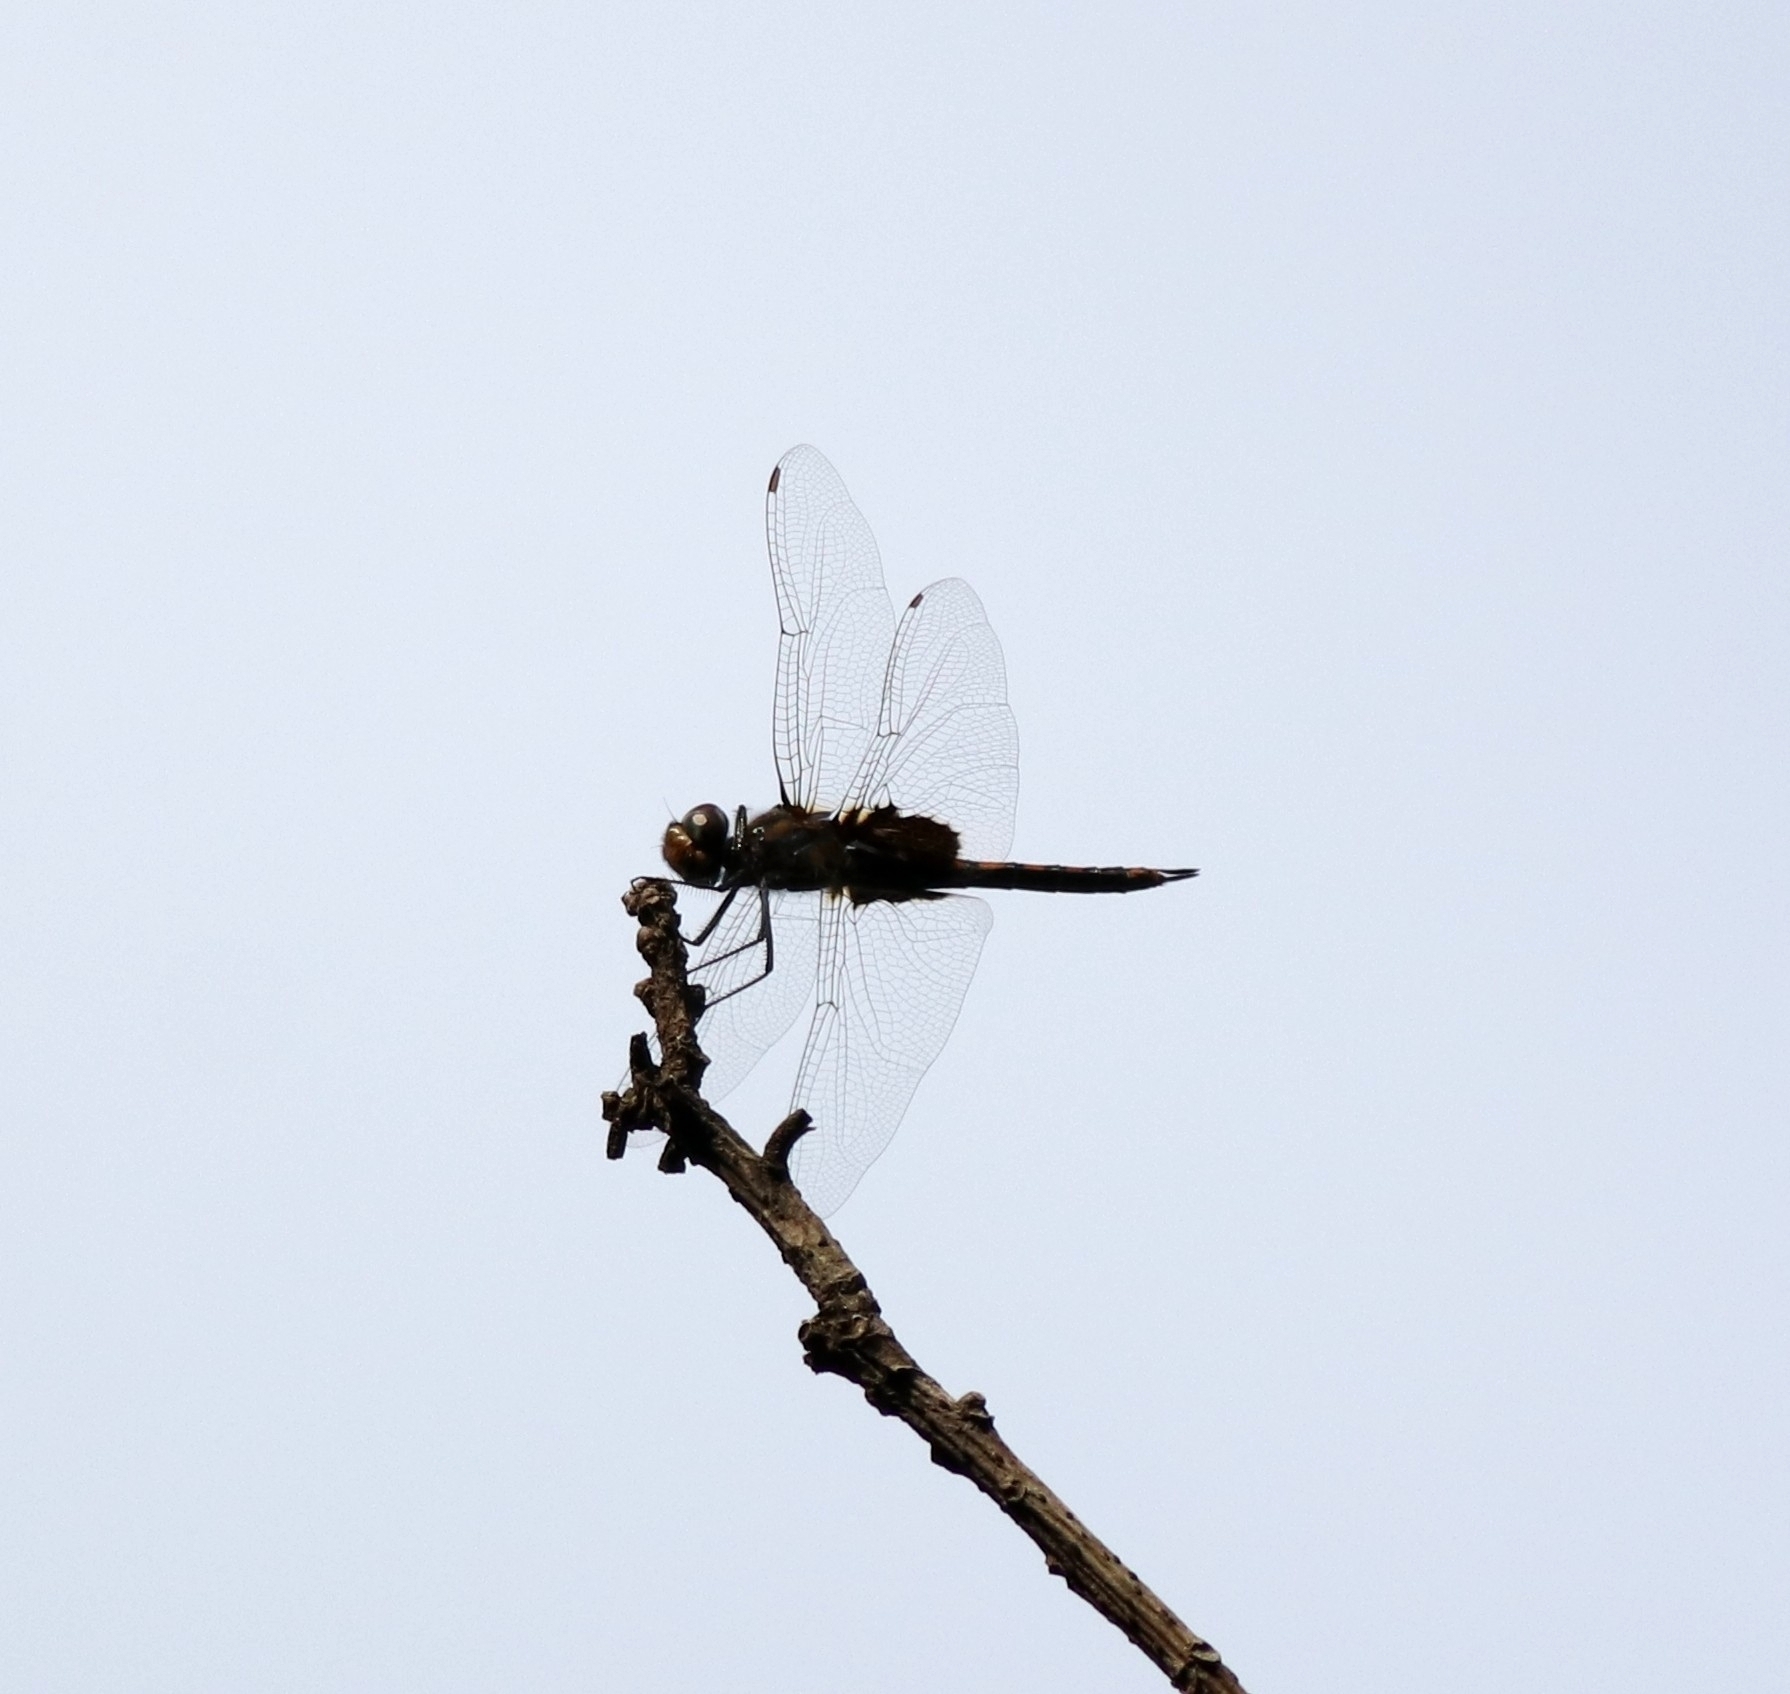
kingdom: Animalia
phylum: Arthropoda
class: Insecta
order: Odonata
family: Libellulidae
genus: Tramea
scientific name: Tramea limbata
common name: Ferruginous glider
